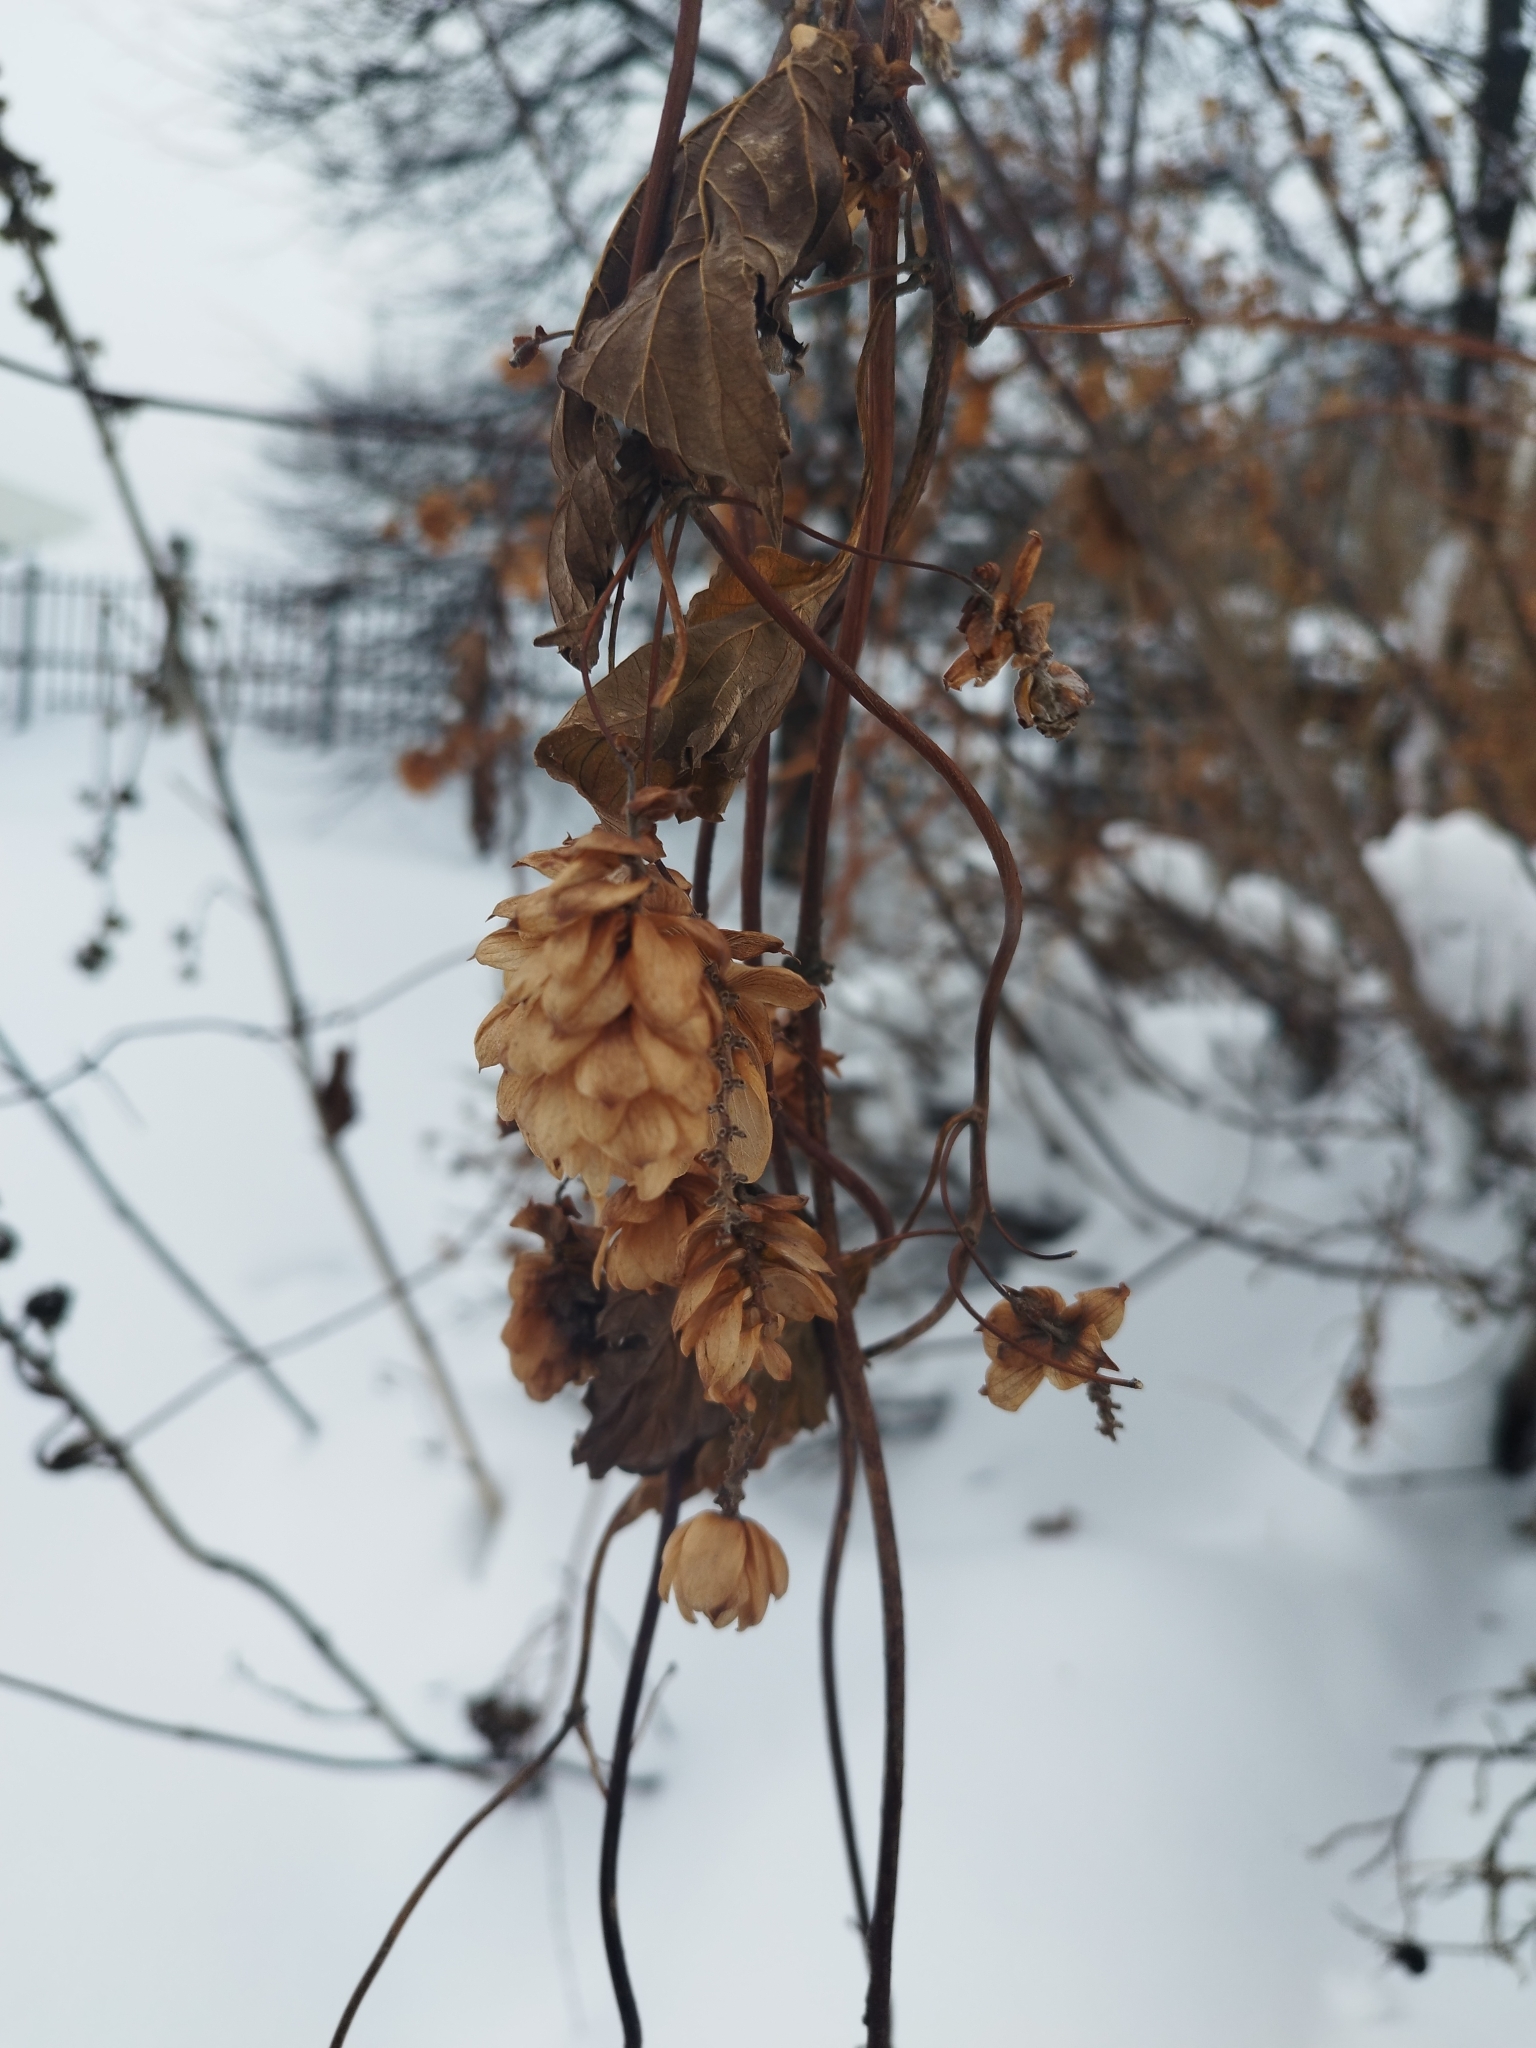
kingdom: Plantae
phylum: Tracheophyta
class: Magnoliopsida
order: Rosales
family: Cannabaceae
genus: Humulus
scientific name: Humulus lupulus
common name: Hop
